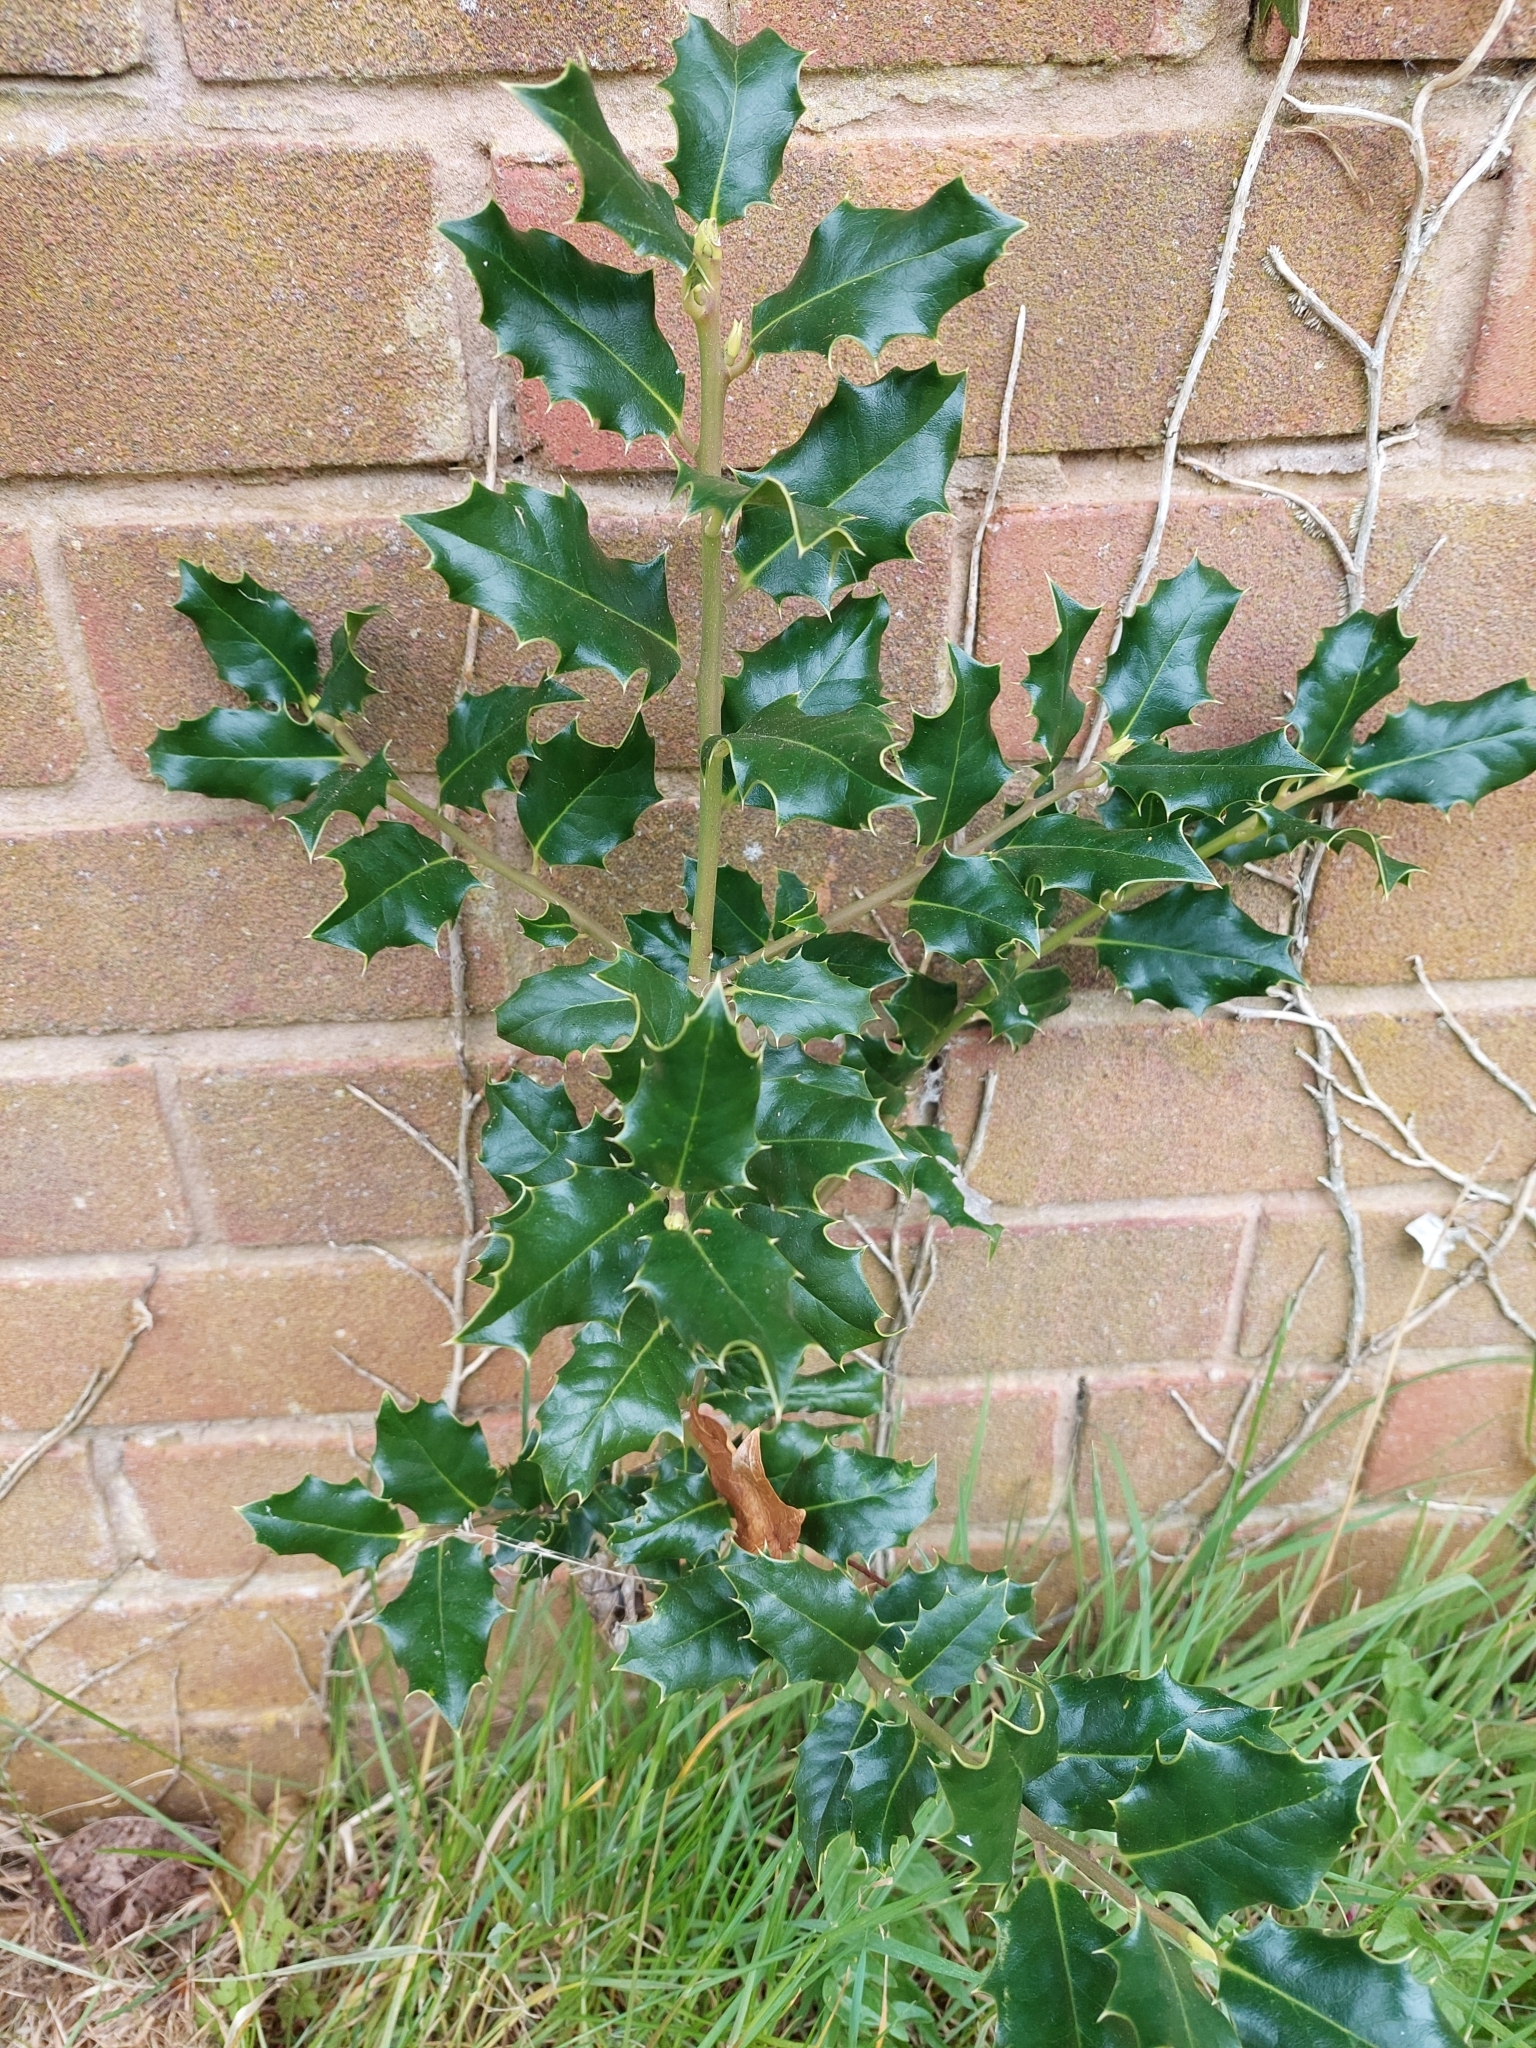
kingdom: Plantae
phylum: Tracheophyta
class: Magnoliopsida
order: Aquifoliales
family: Aquifoliaceae
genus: Ilex
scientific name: Ilex aquifolium
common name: English holly
